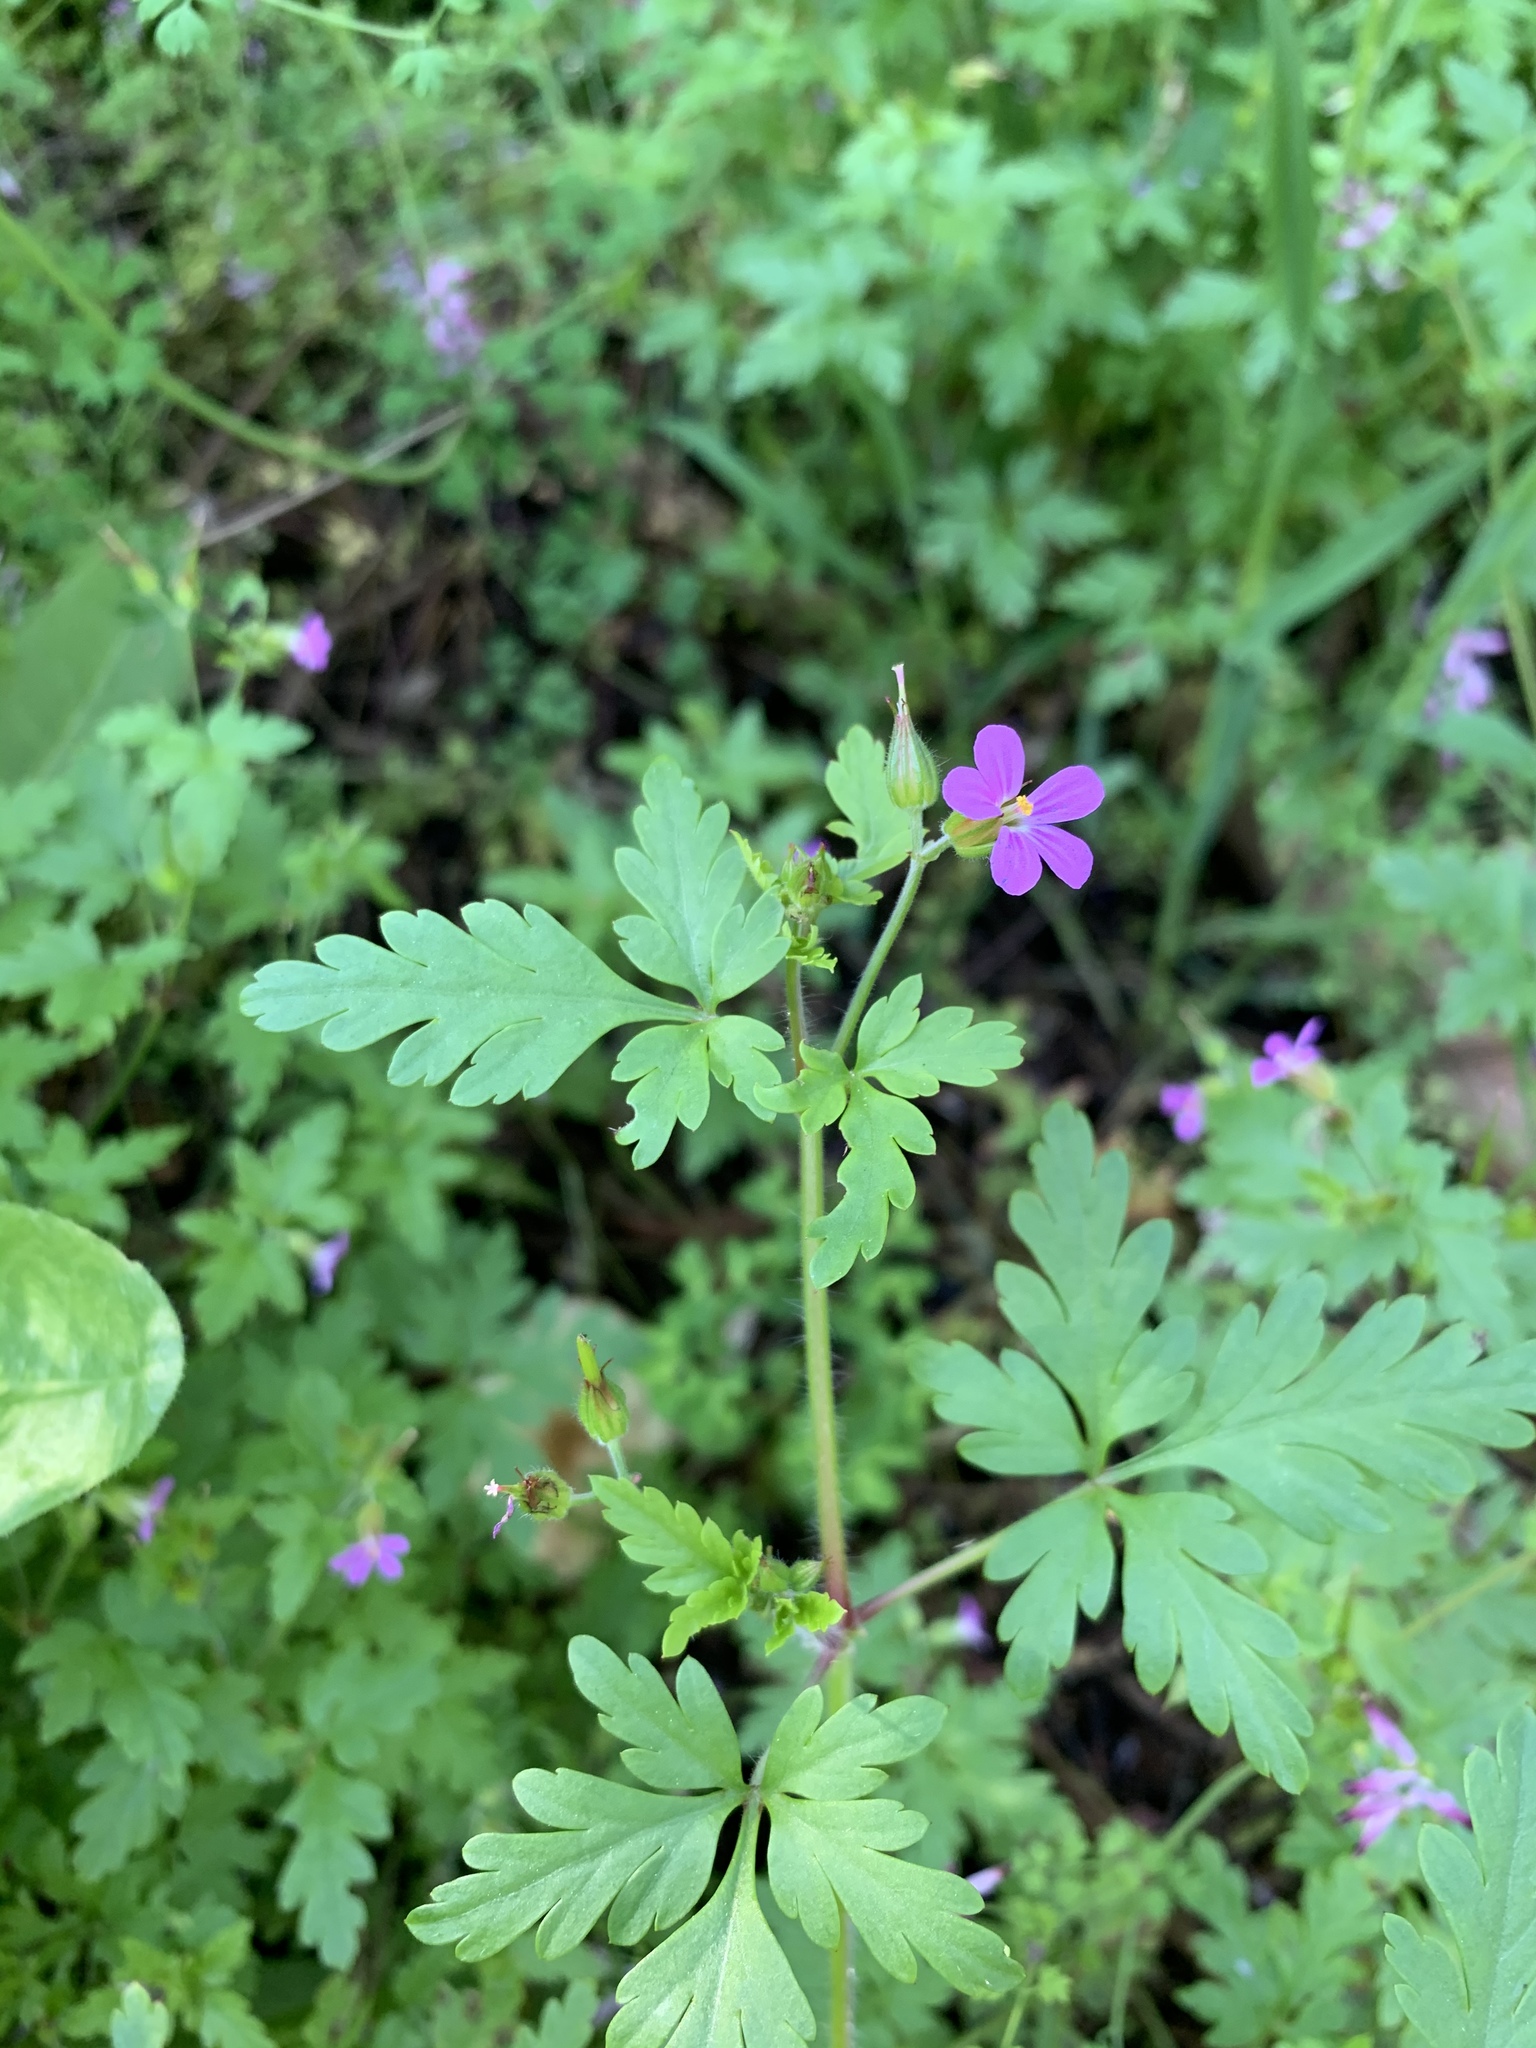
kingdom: Plantae
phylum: Tracheophyta
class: Magnoliopsida
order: Geraniales
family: Geraniaceae
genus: Geranium
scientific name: Geranium purpureum
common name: Little-robin
